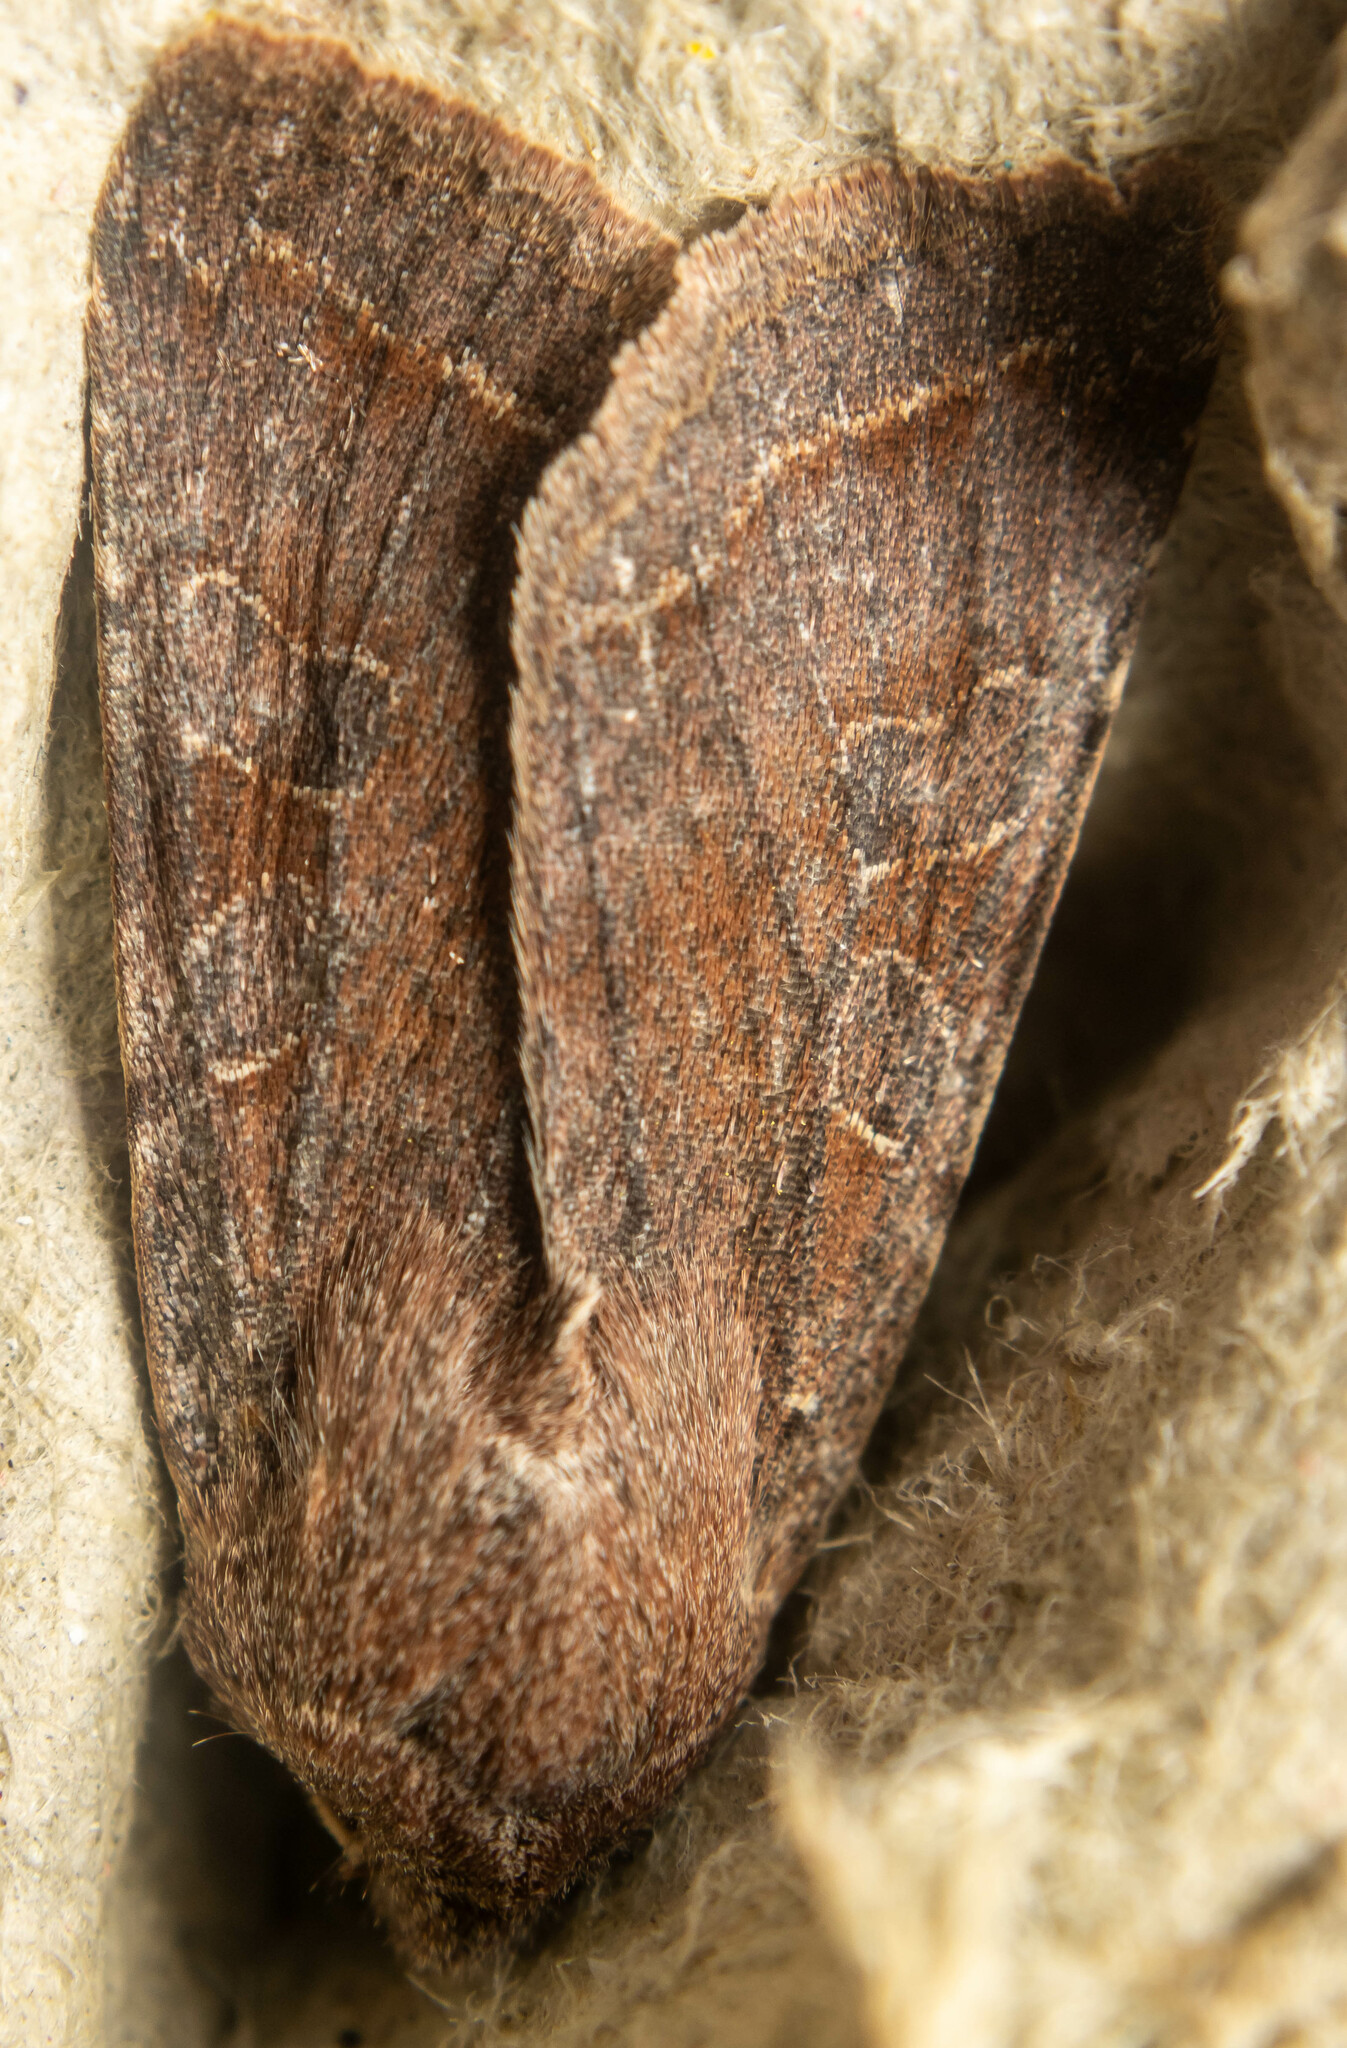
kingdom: Animalia
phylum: Arthropoda
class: Insecta
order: Lepidoptera
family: Noctuidae
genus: Orthosia
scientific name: Orthosia incerta
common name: Clouded drab
